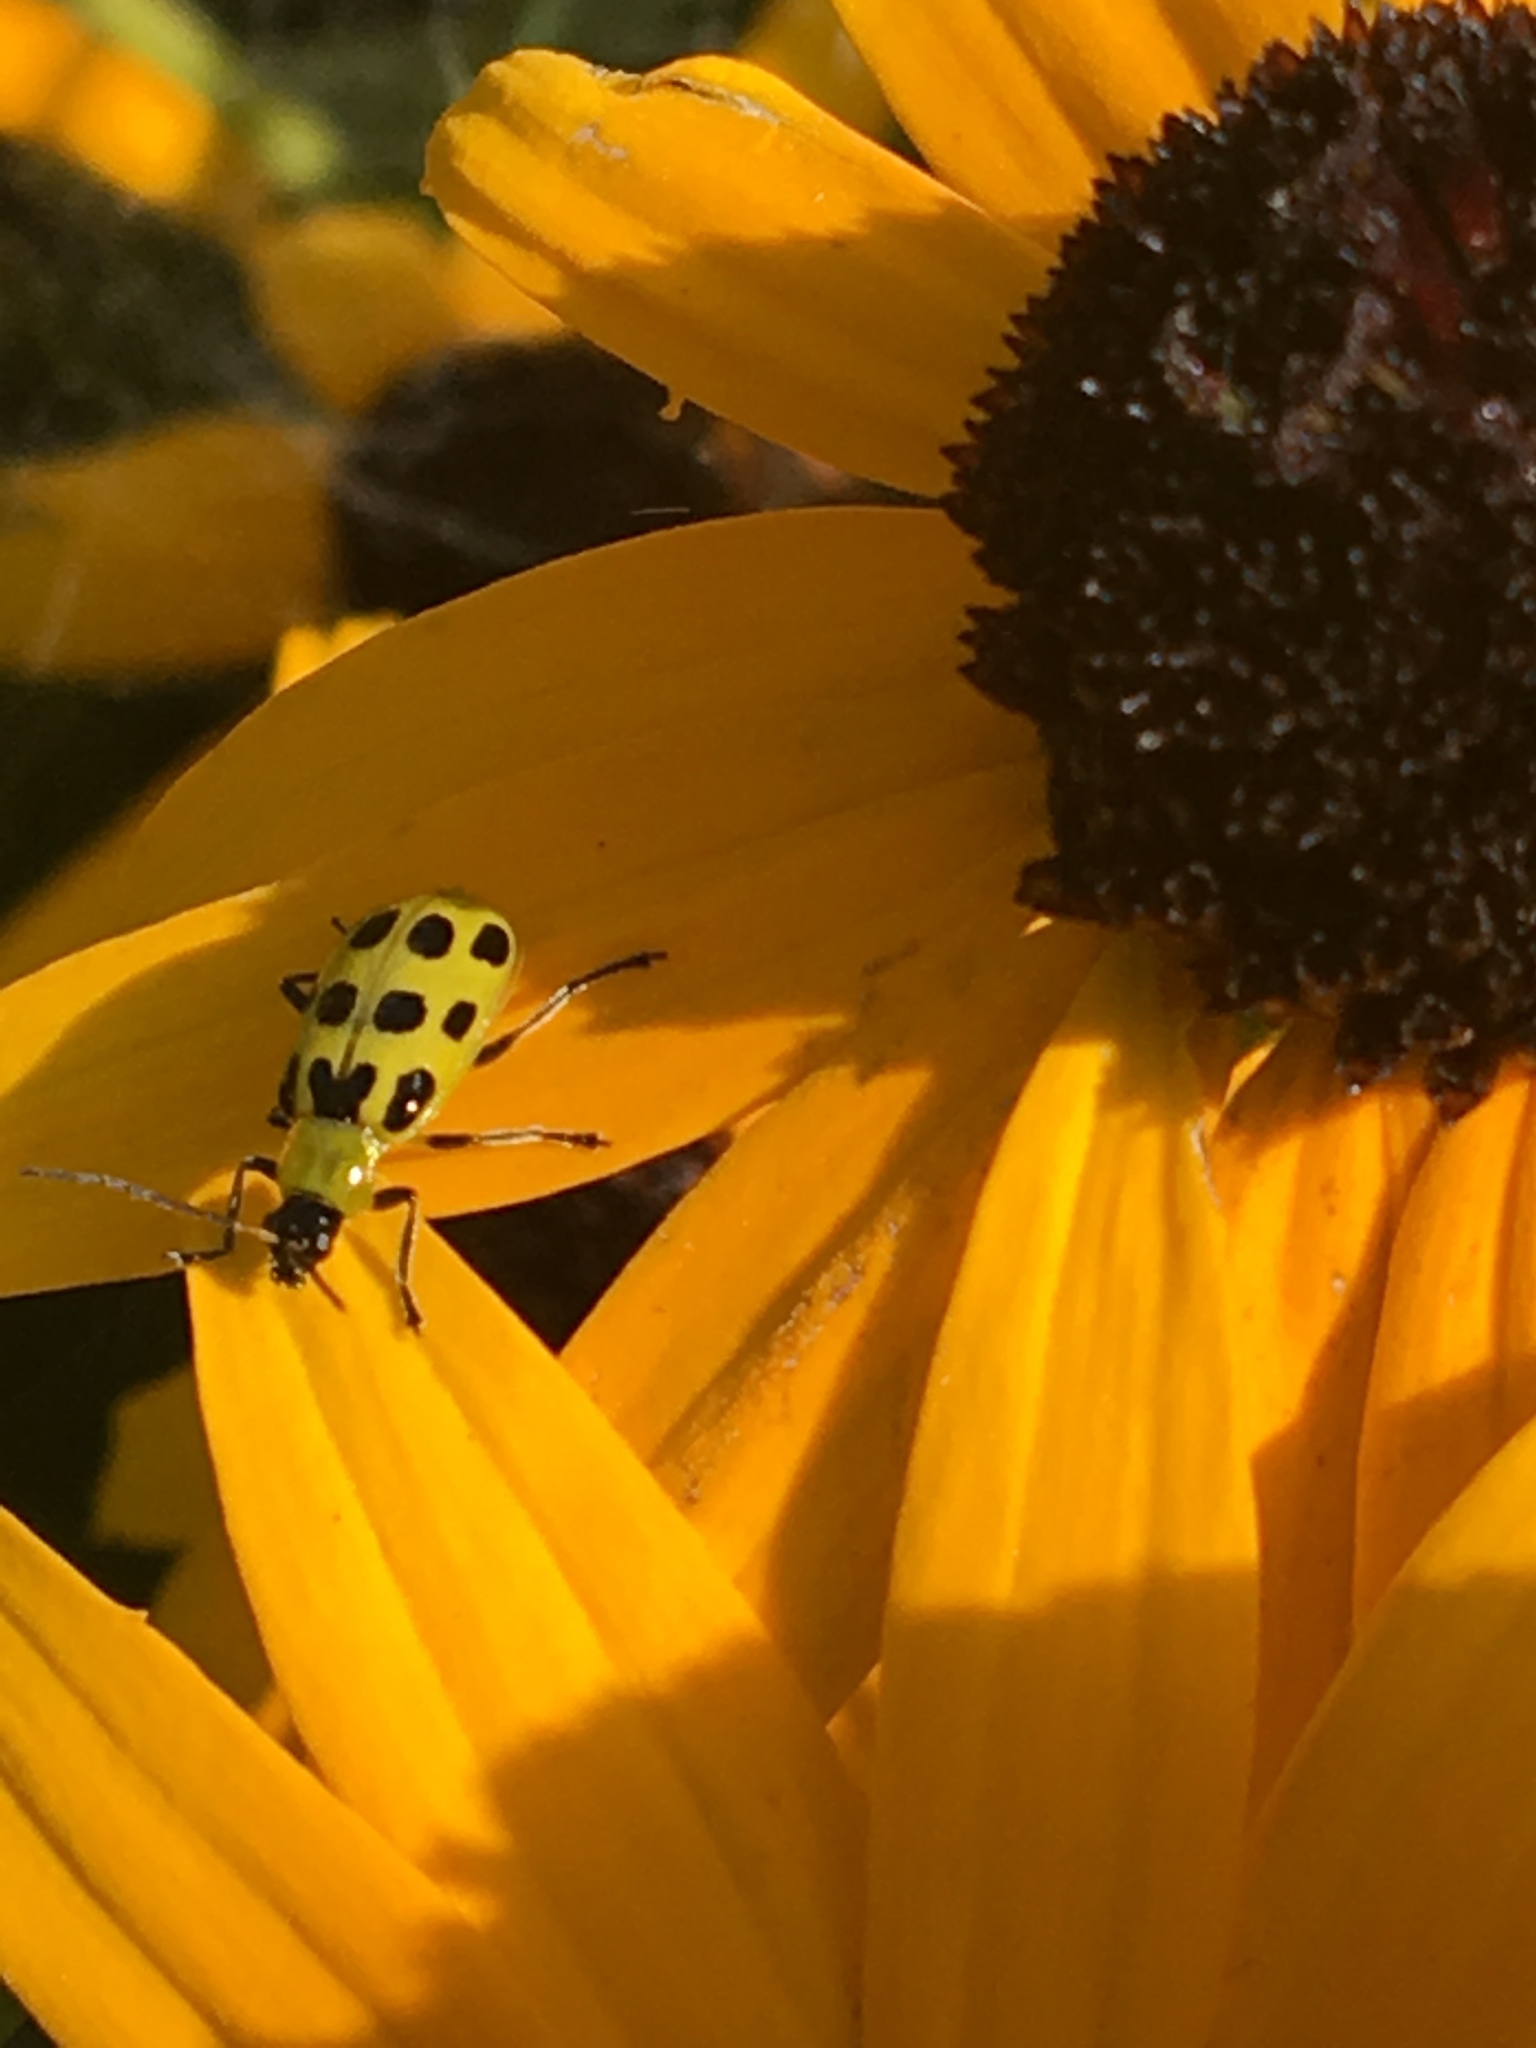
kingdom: Animalia
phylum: Arthropoda
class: Insecta
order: Coleoptera
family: Chrysomelidae
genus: Diabrotica
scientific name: Diabrotica undecimpunctata
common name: Spotted cucumber beetle
